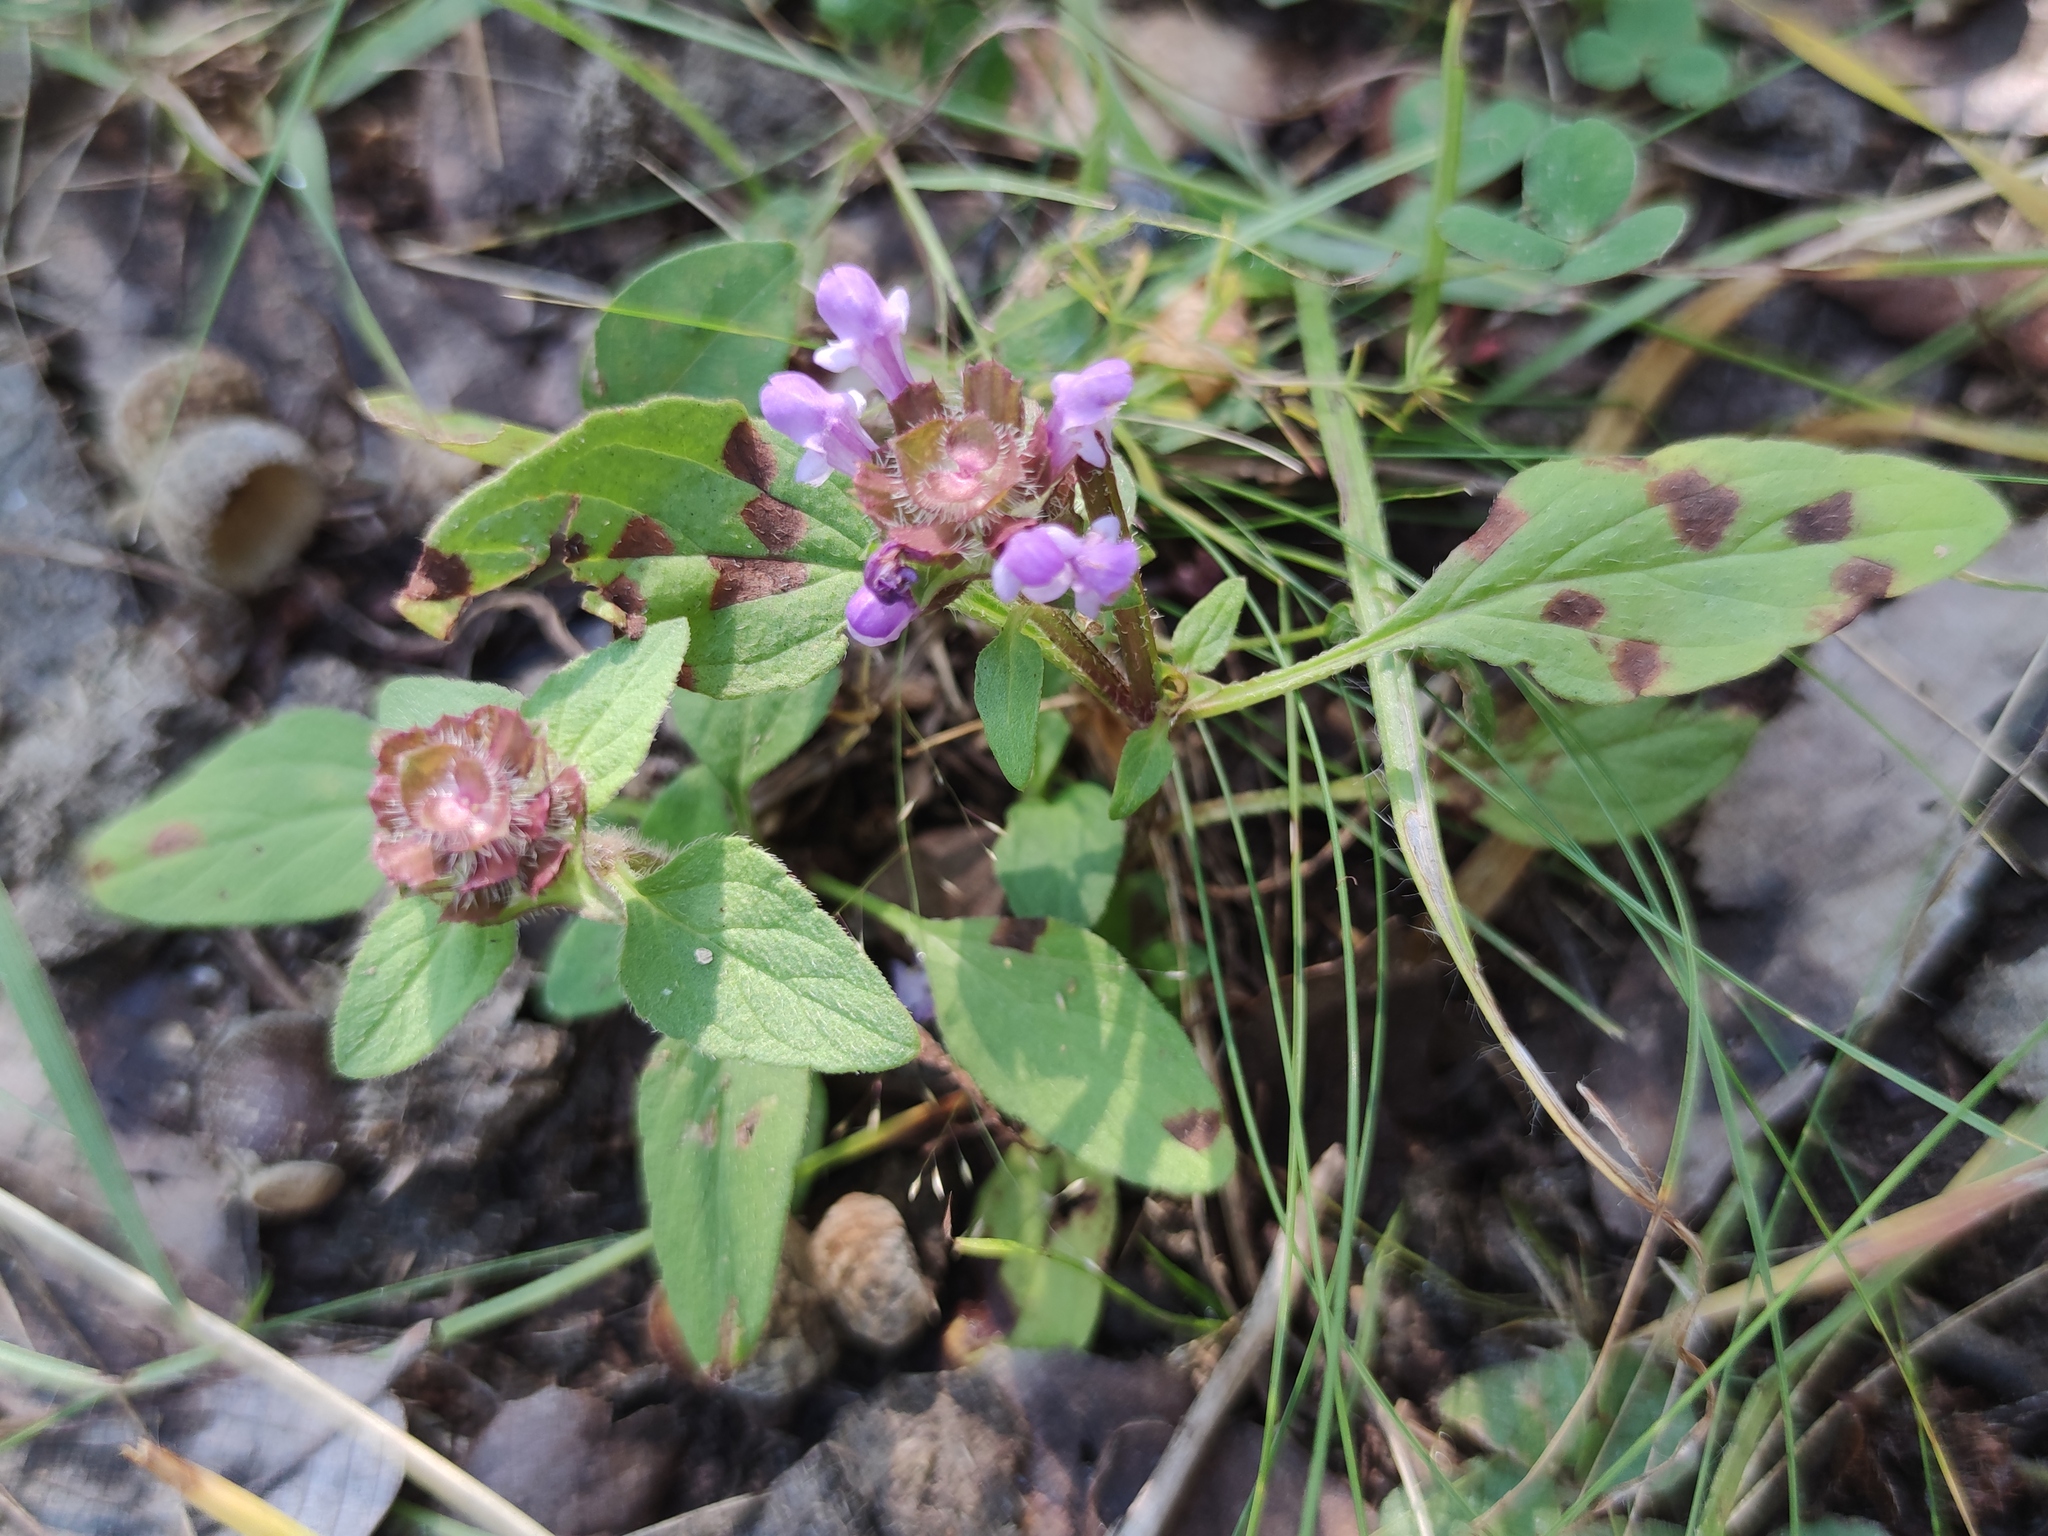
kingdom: Plantae
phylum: Tracheophyta
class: Magnoliopsida
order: Lamiales
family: Lamiaceae
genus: Prunella
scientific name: Prunella vulgaris
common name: Heal-all
